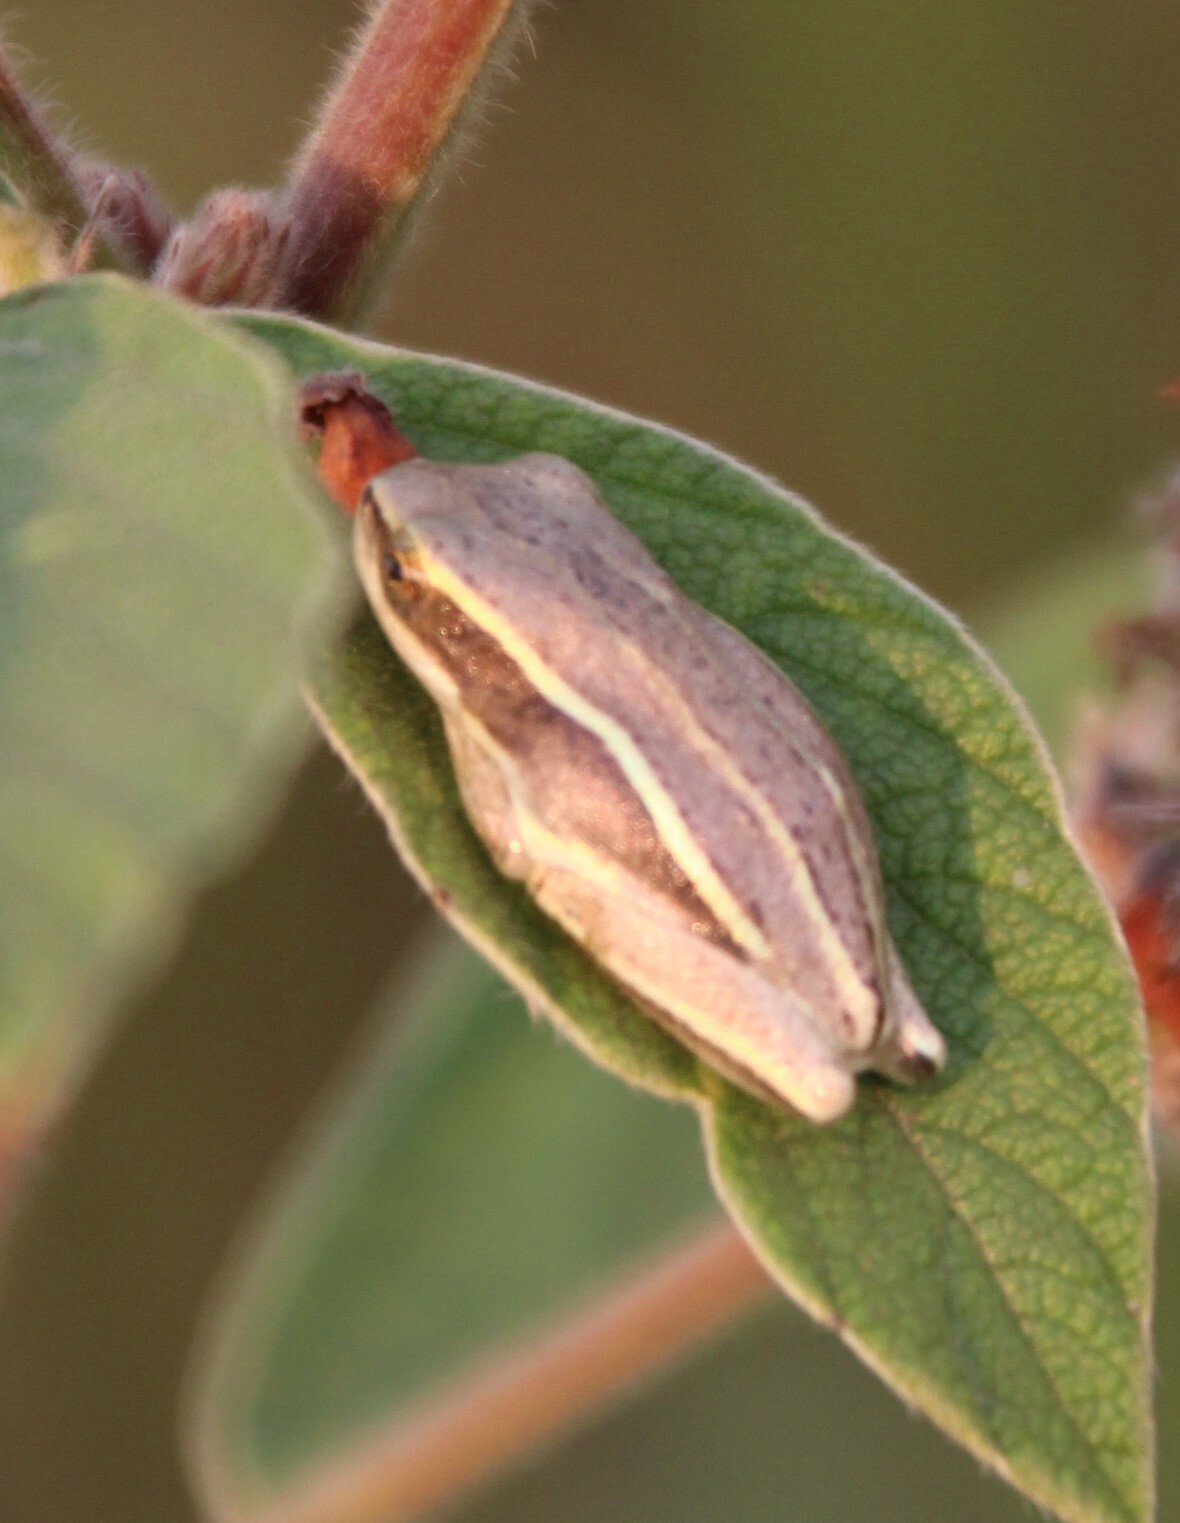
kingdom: Animalia
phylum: Chordata
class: Amphibia
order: Anura
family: Hyperoliidae
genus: Hyperolius
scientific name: Hyperolius kivuensis
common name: Kivu reed frog
